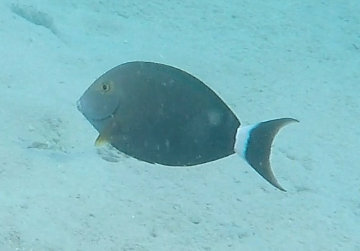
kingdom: Animalia
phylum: Chordata
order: Perciformes
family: Acanthuridae
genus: Acanthurus
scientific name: Acanthurus gahhm
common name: Black surgeonfish
